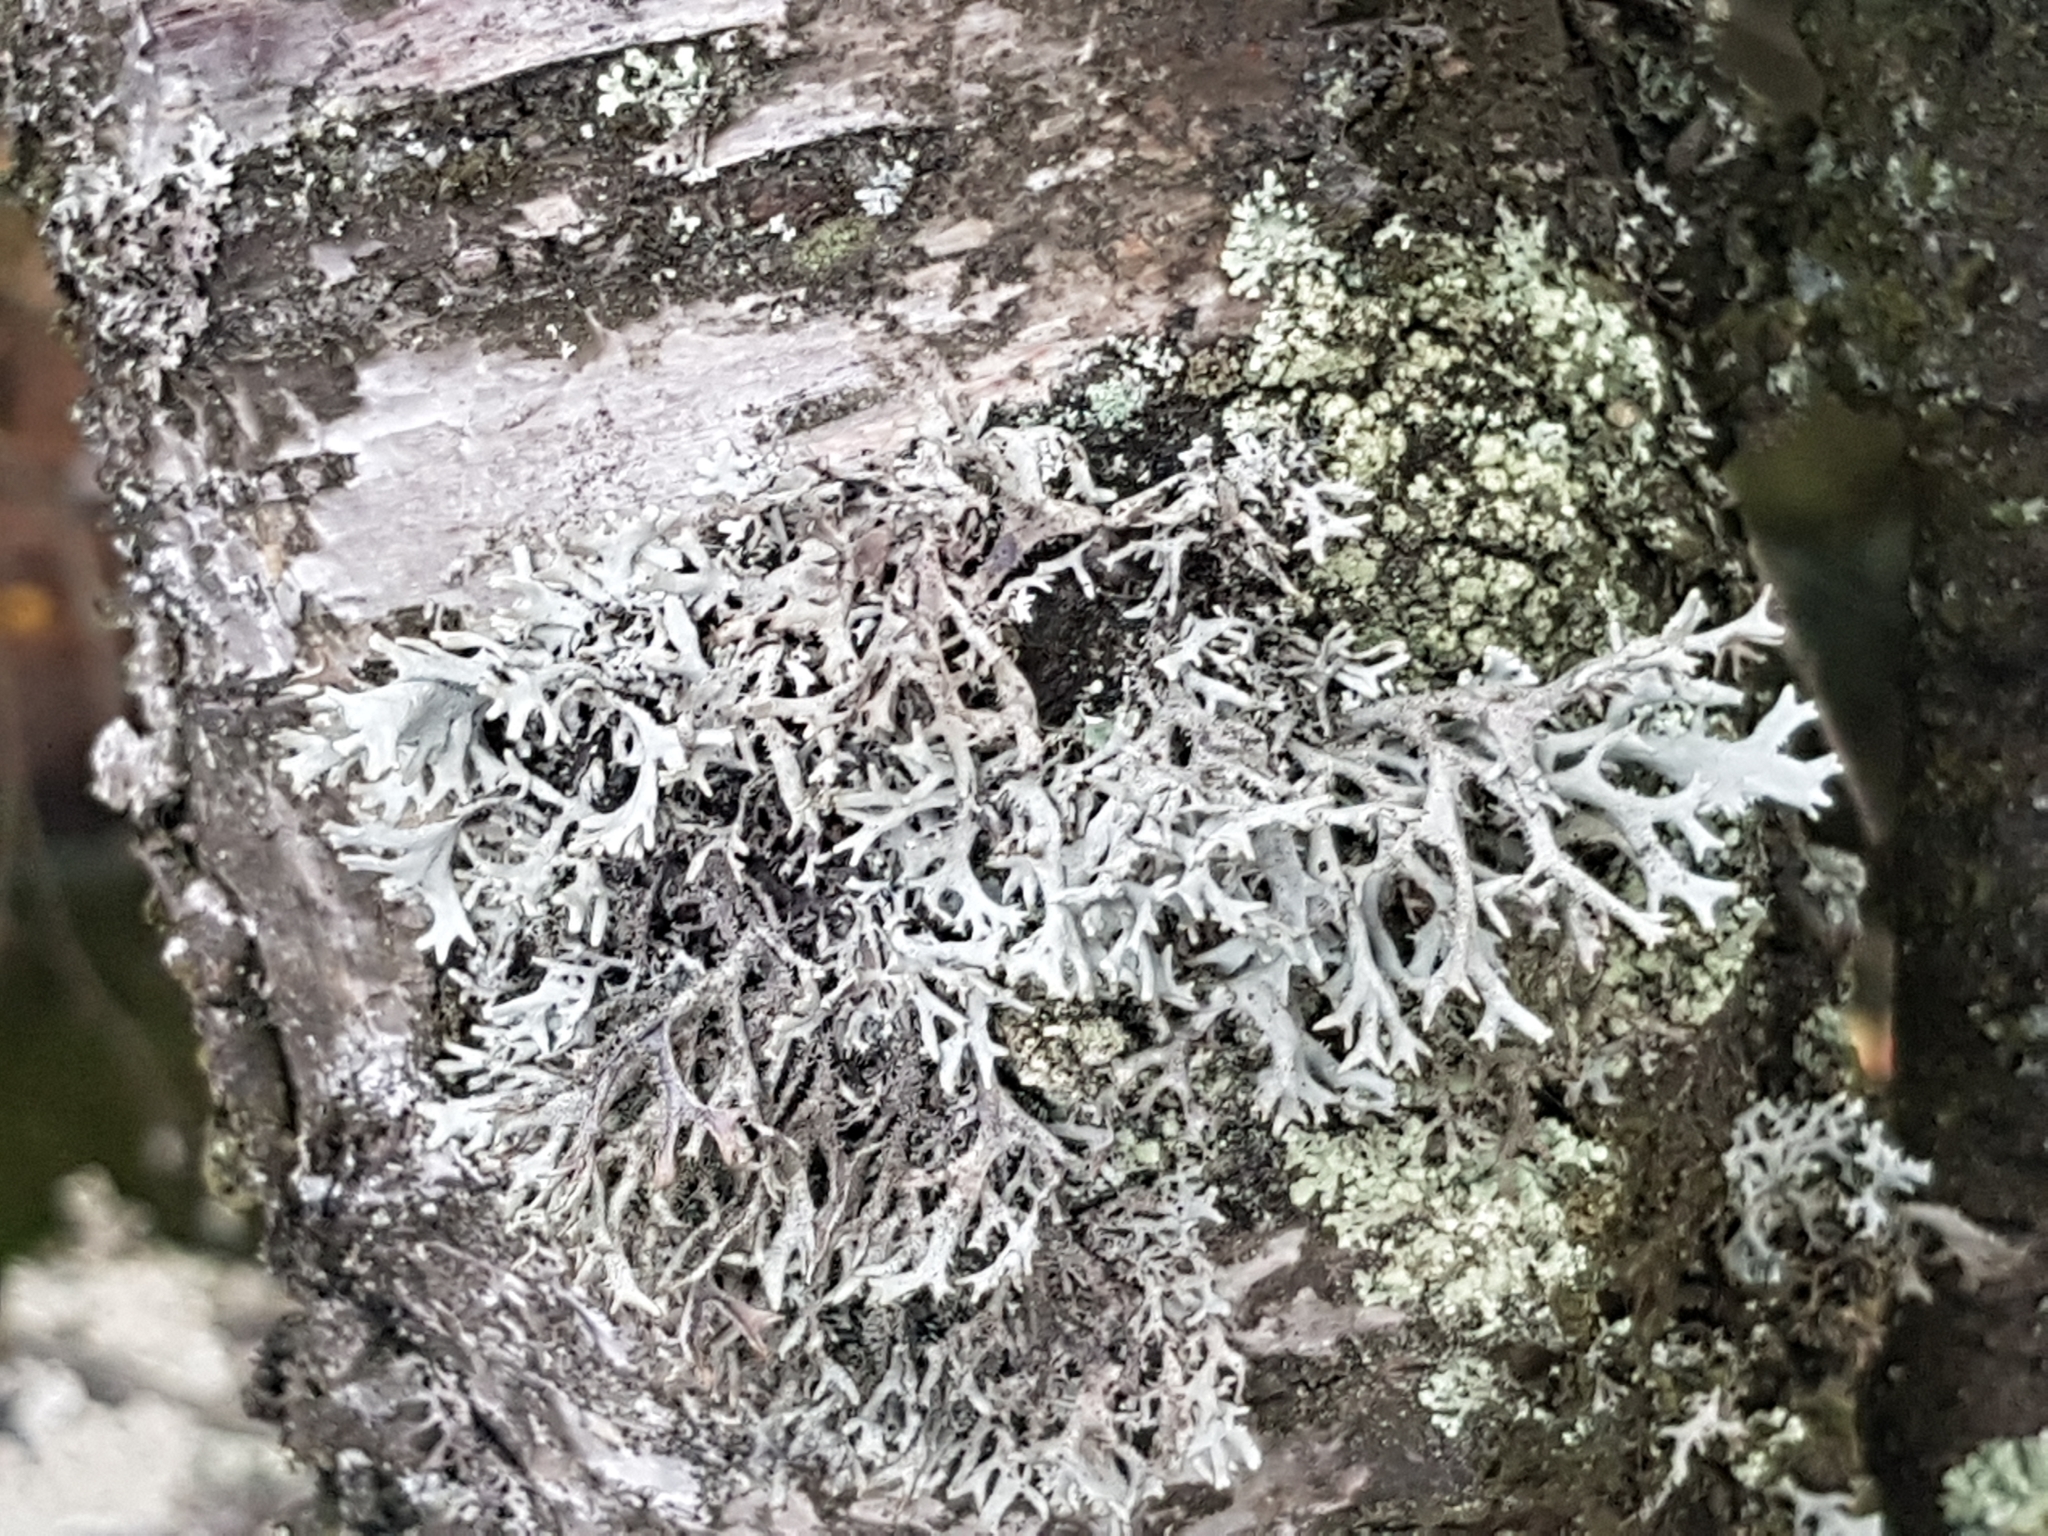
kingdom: Fungi
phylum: Ascomycota
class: Lecanoromycetes
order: Lecanorales
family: Parmeliaceae
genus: Pseudevernia
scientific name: Pseudevernia furfuracea
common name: Tree moss
